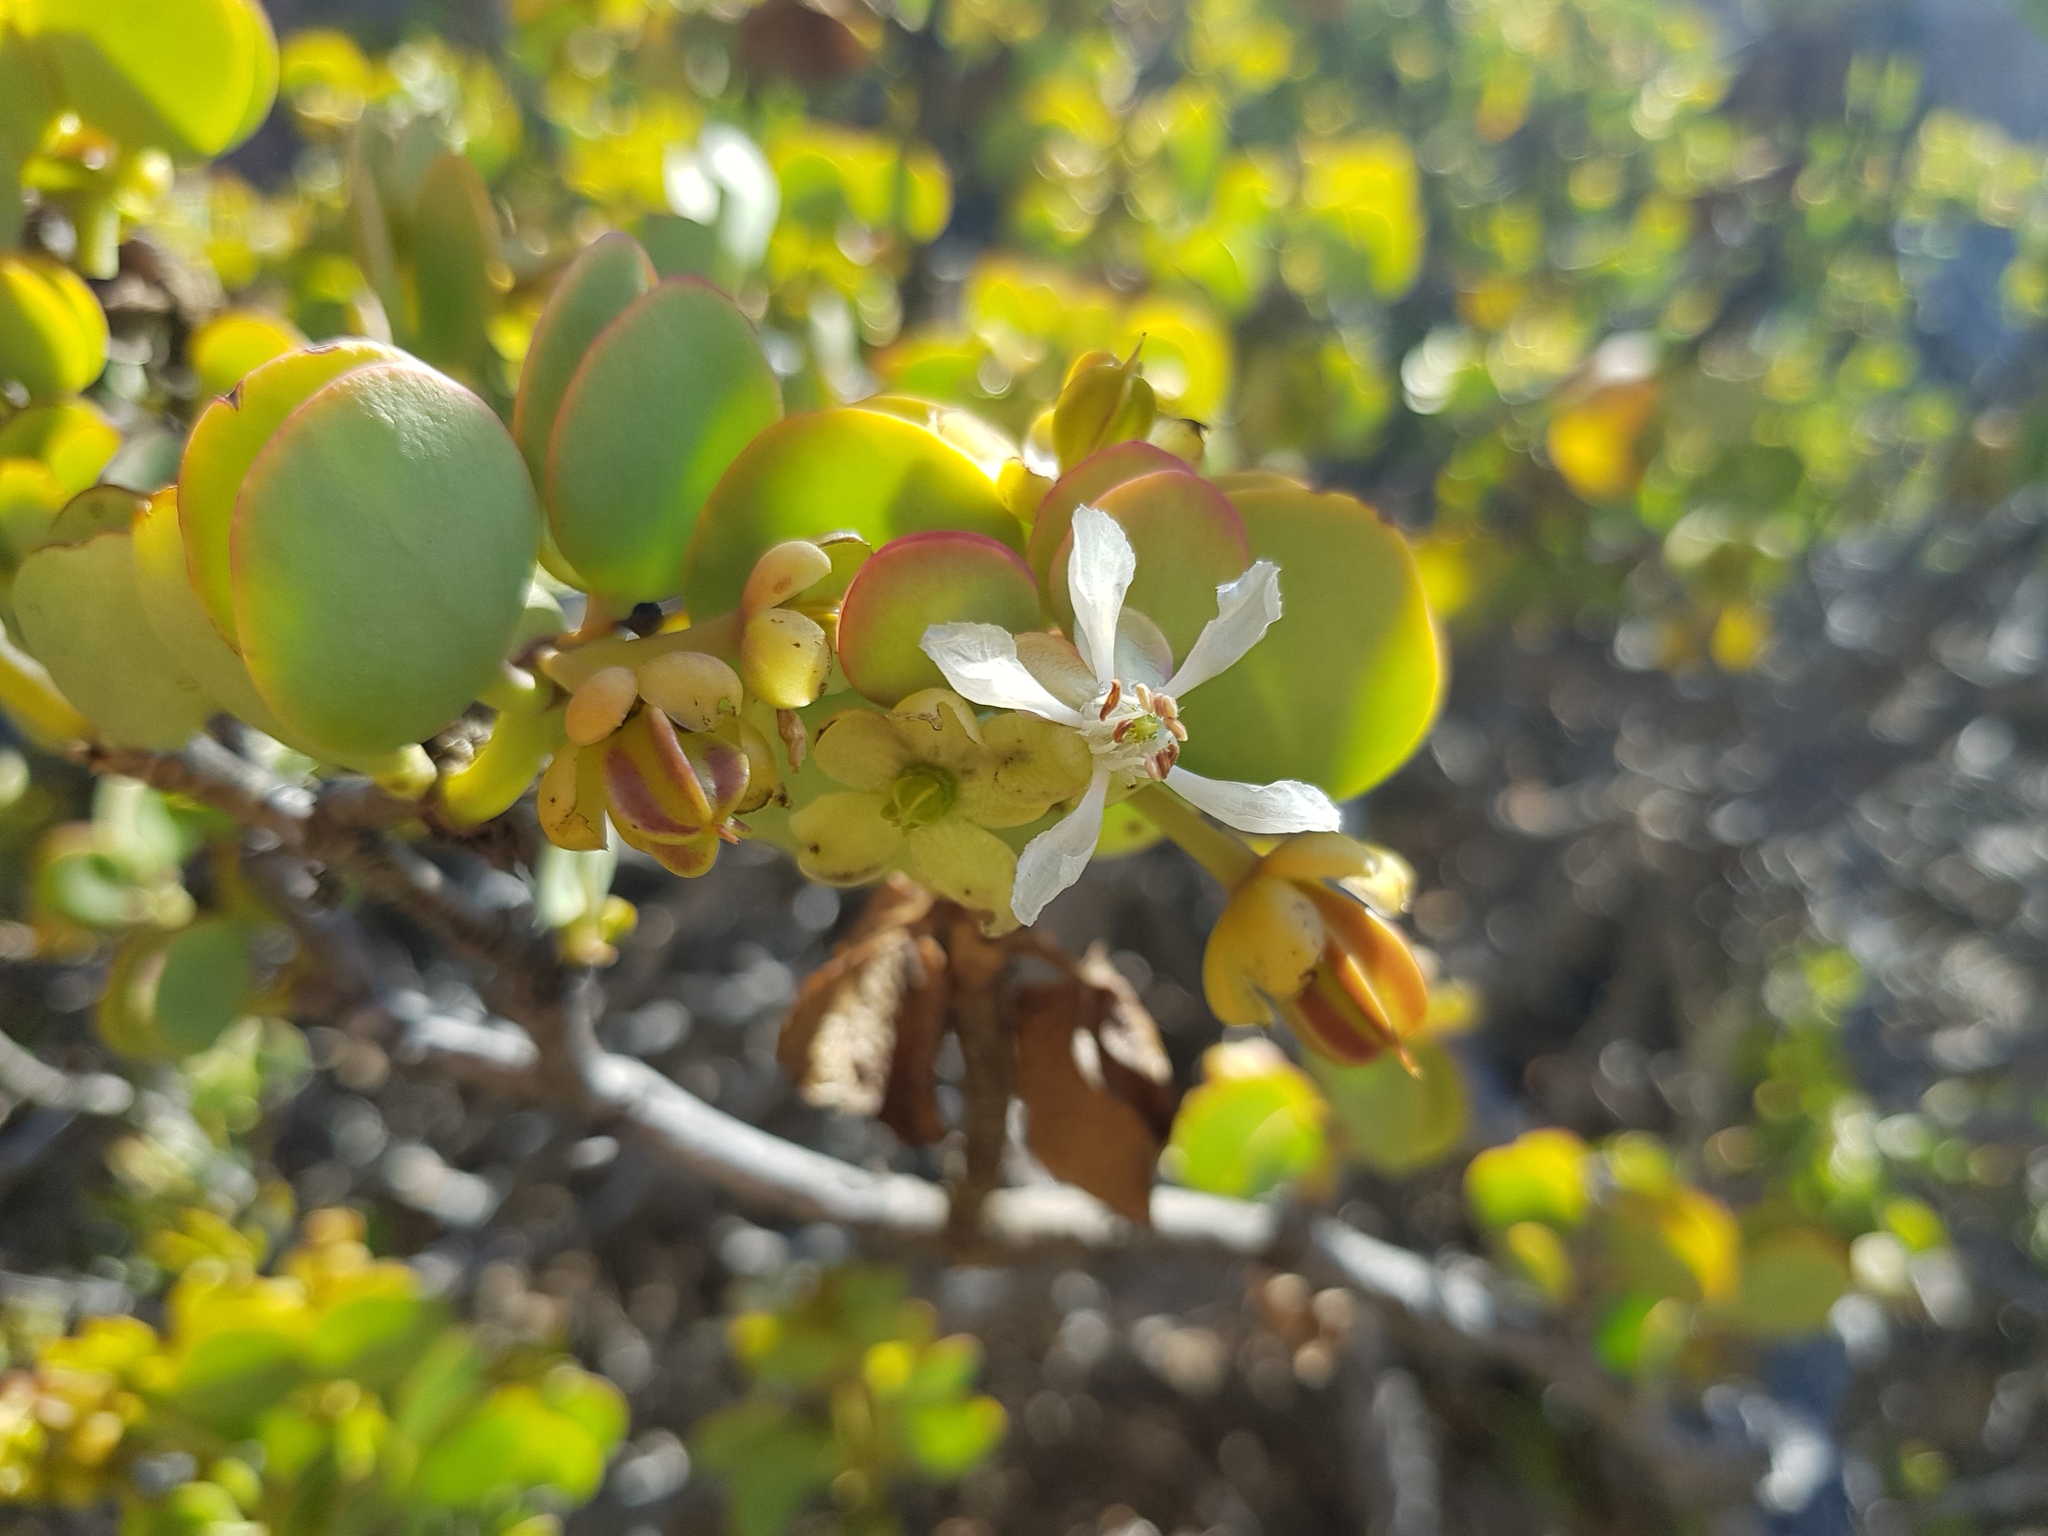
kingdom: Plantae
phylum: Tracheophyta
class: Magnoliopsida
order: Zygophyllales
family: Zygophyllaceae
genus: Tetraena
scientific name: Tetraena stapfii
